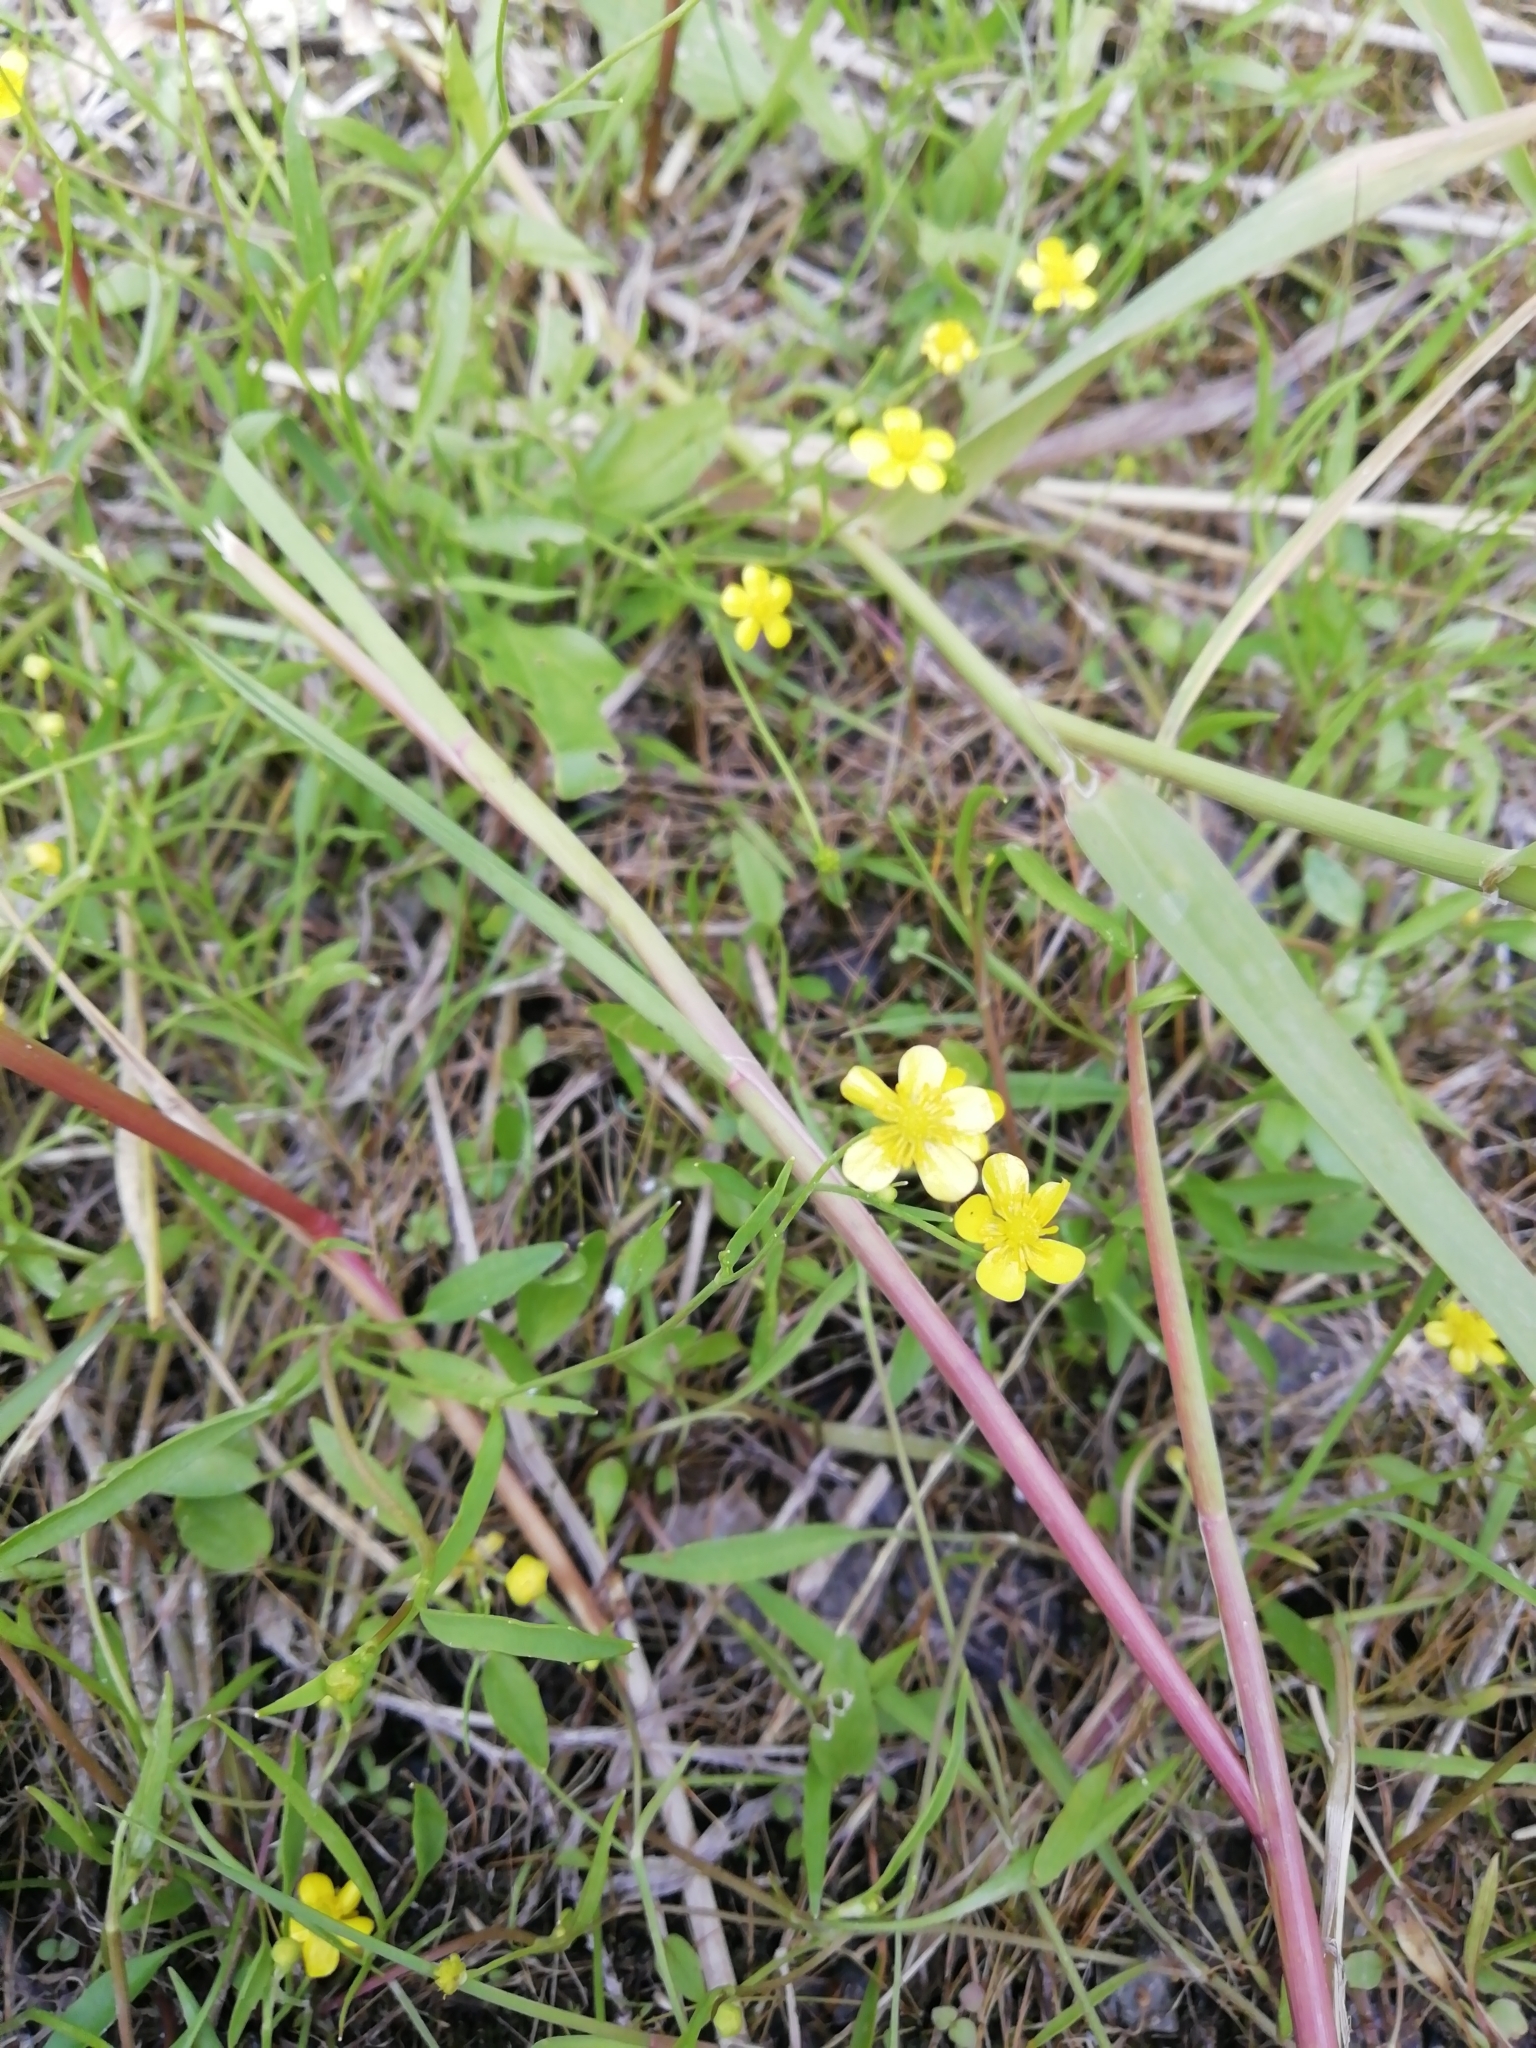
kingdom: Plantae
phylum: Tracheophyta
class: Magnoliopsida
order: Ranunculales
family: Ranunculaceae
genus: Ranunculus
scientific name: Ranunculus flammula
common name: Lesser spearwort
